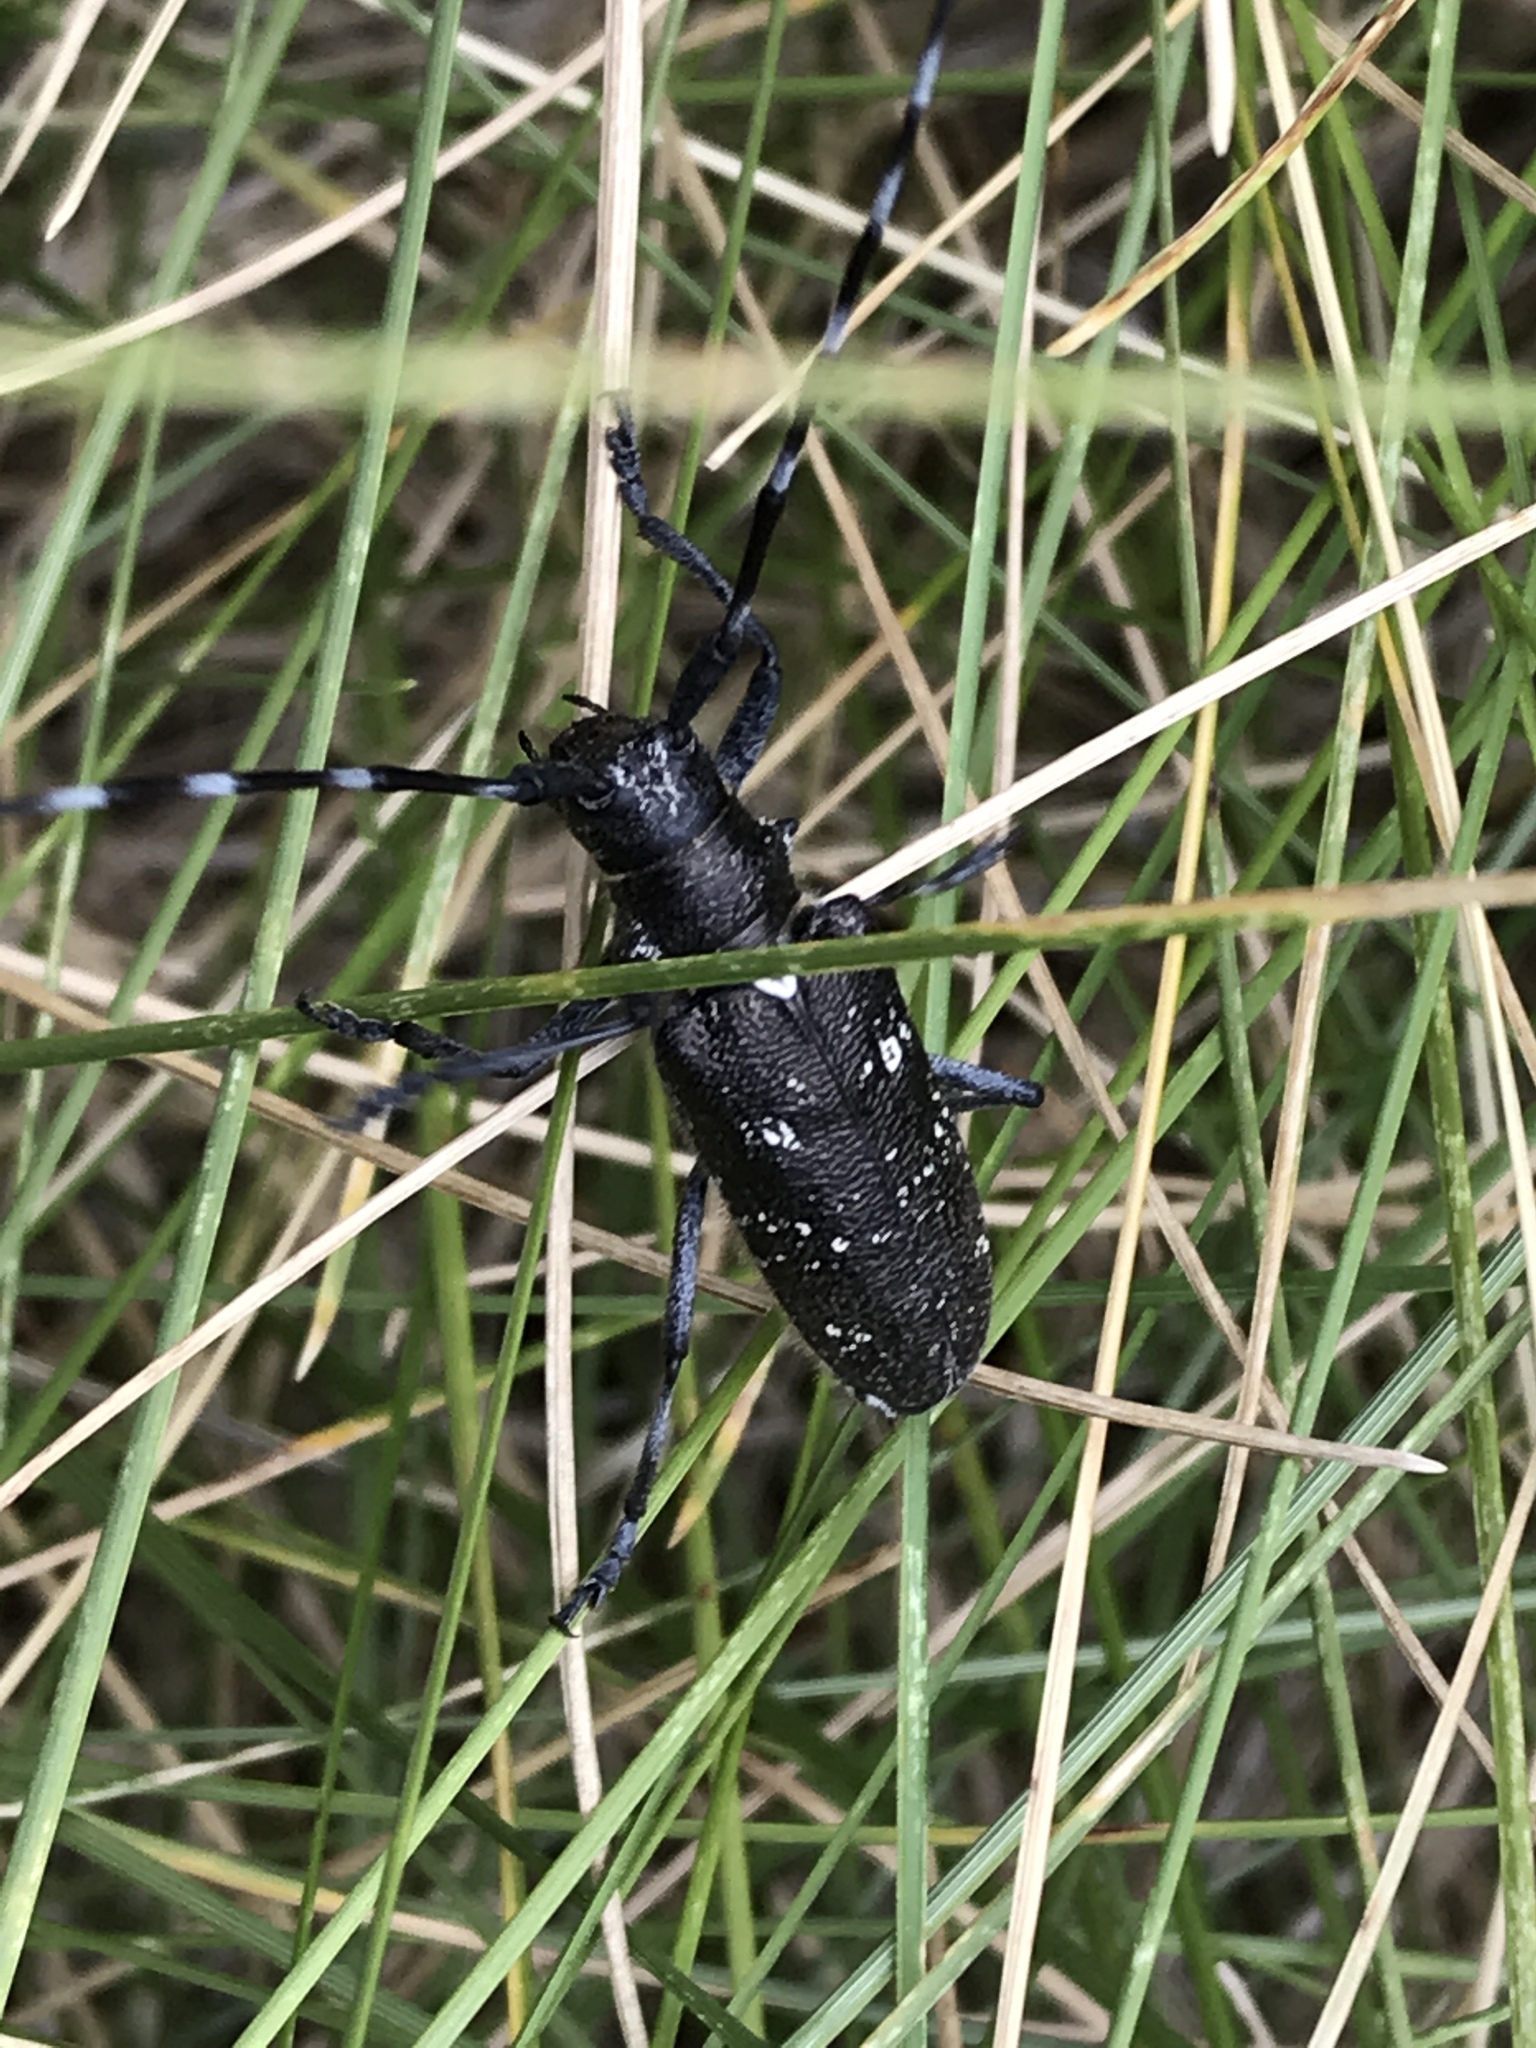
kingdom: Animalia
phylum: Arthropoda
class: Insecta
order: Coleoptera
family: Cerambycidae
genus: Monochamus
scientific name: Monochamus scutellatus
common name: White-spotted sawyer beetle
